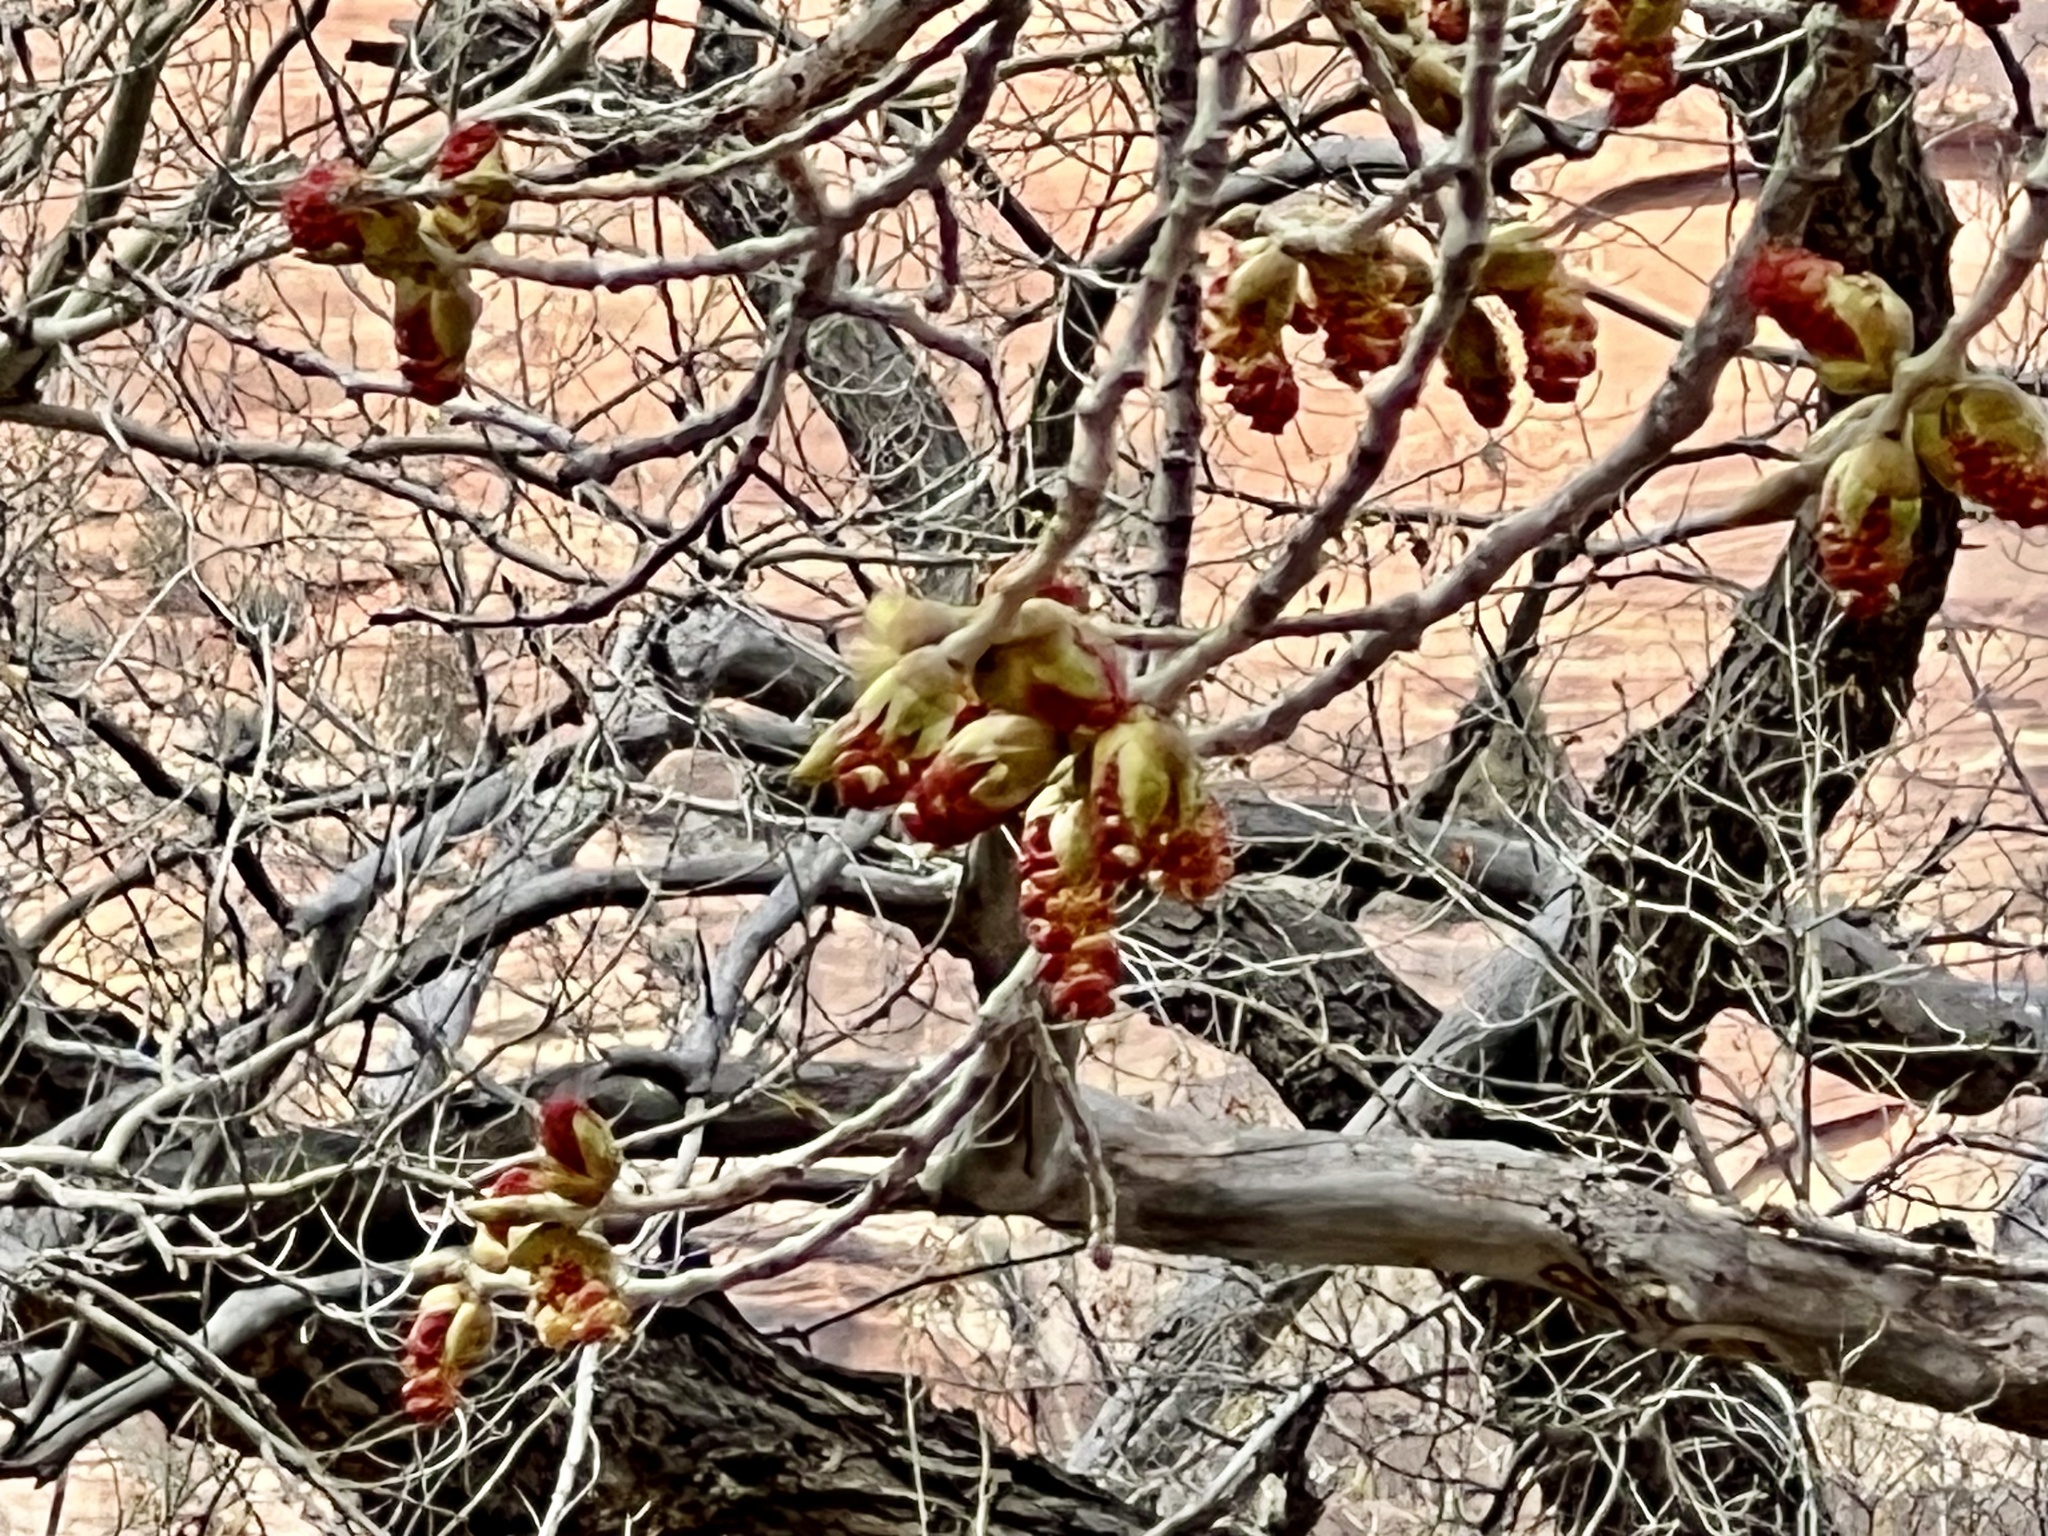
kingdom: Plantae
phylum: Tracheophyta
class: Magnoliopsida
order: Malpighiales
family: Salicaceae
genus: Populus
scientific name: Populus fremontii
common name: Fremont's cottonwood
